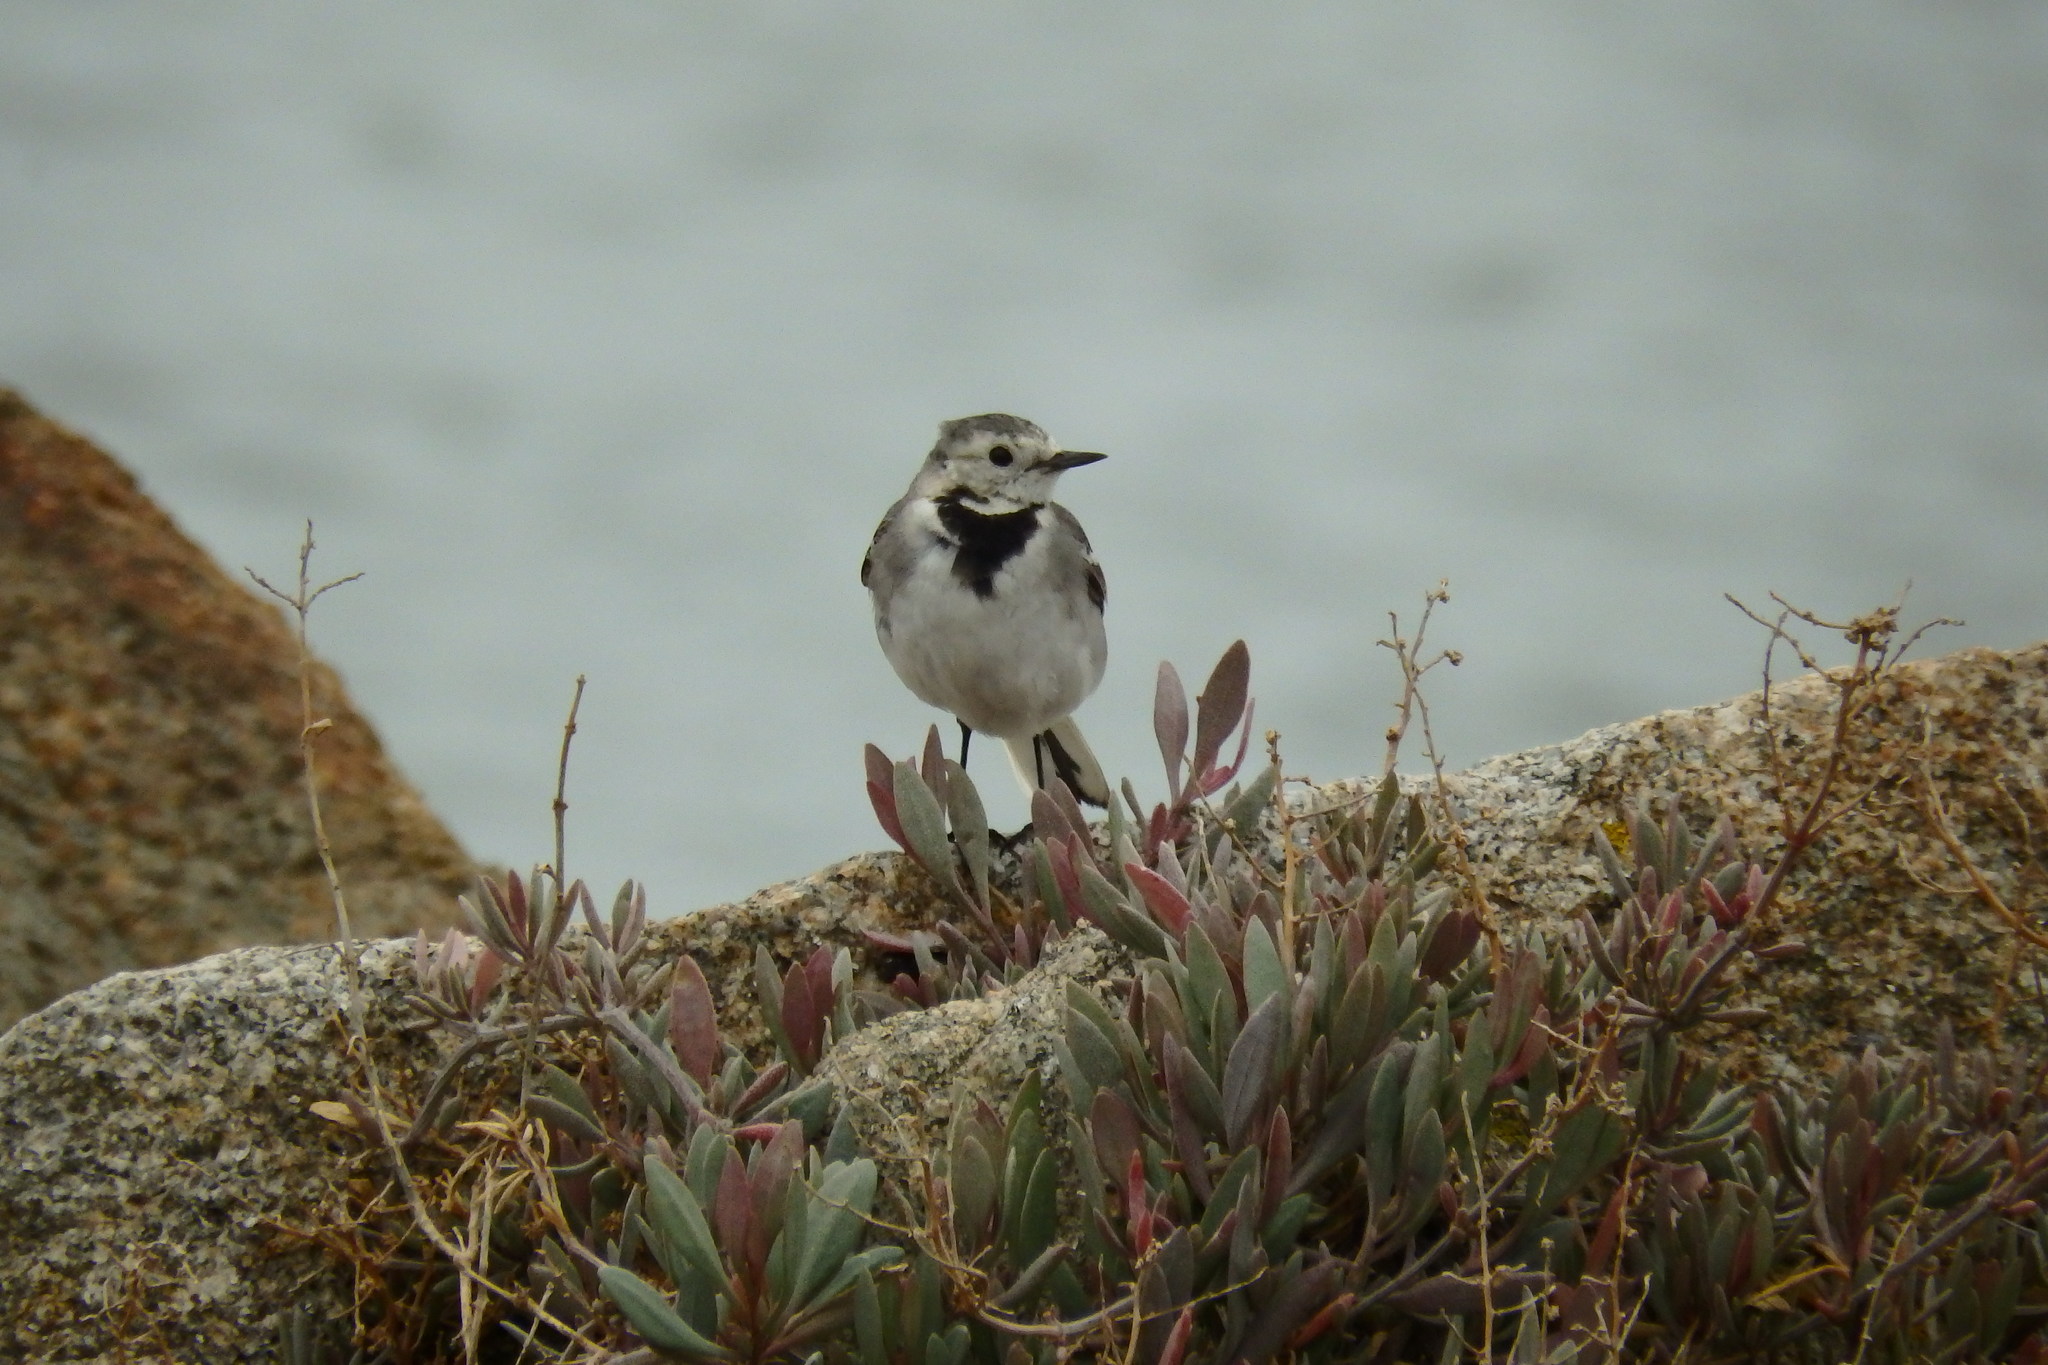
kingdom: Animalia
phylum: Chordata
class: Aves
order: Passeriformes
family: Motacillidae
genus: Motacilla
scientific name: Motacilla alba
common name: White wagtail
